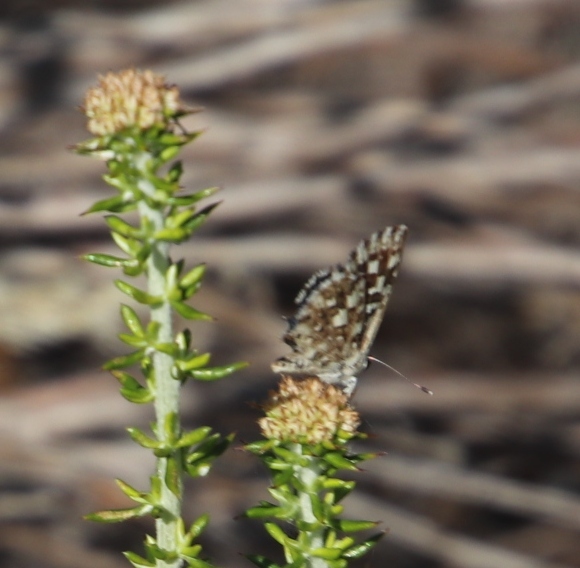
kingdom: Animalia
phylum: Arthropoda
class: Insecta
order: Lepidoptera
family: Lycaenidae
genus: Tarucus
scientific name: Tarucus thespis
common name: Vivid dotted blue
